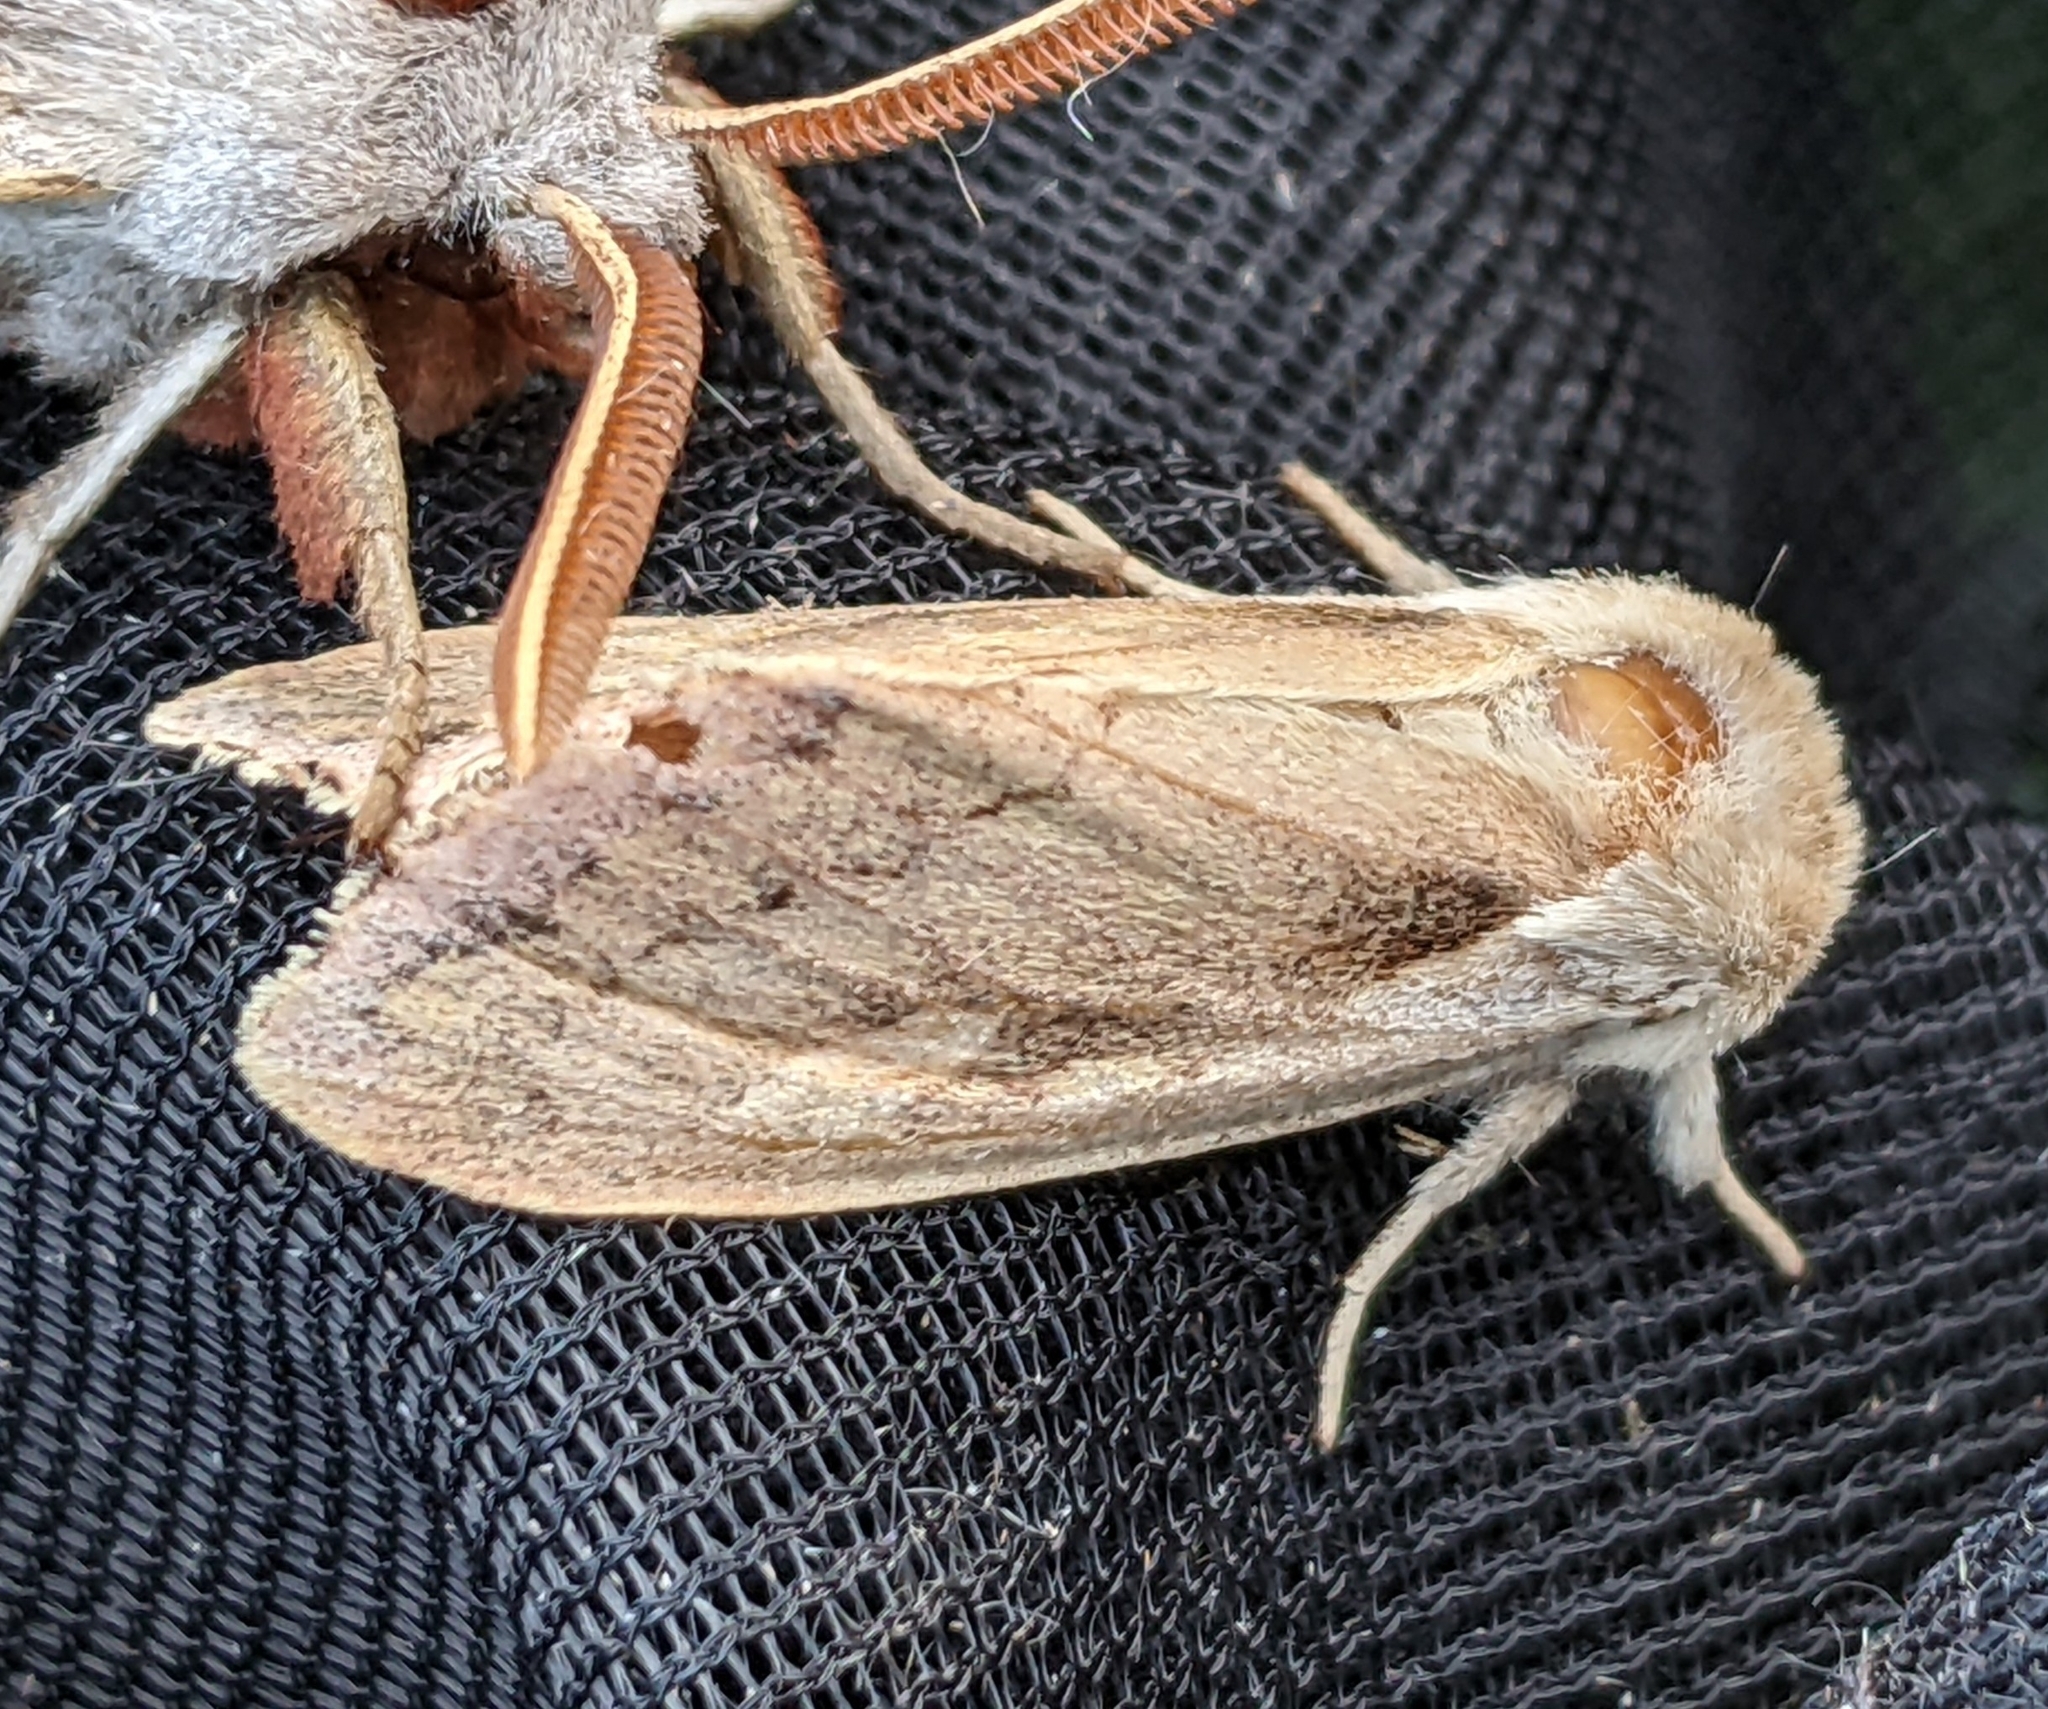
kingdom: Animalia
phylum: Arthropoda
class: Insecta
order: Lepidoptera
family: Noctuidae
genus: Bellura
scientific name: Bellura obliqua
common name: Cattail borer moth
